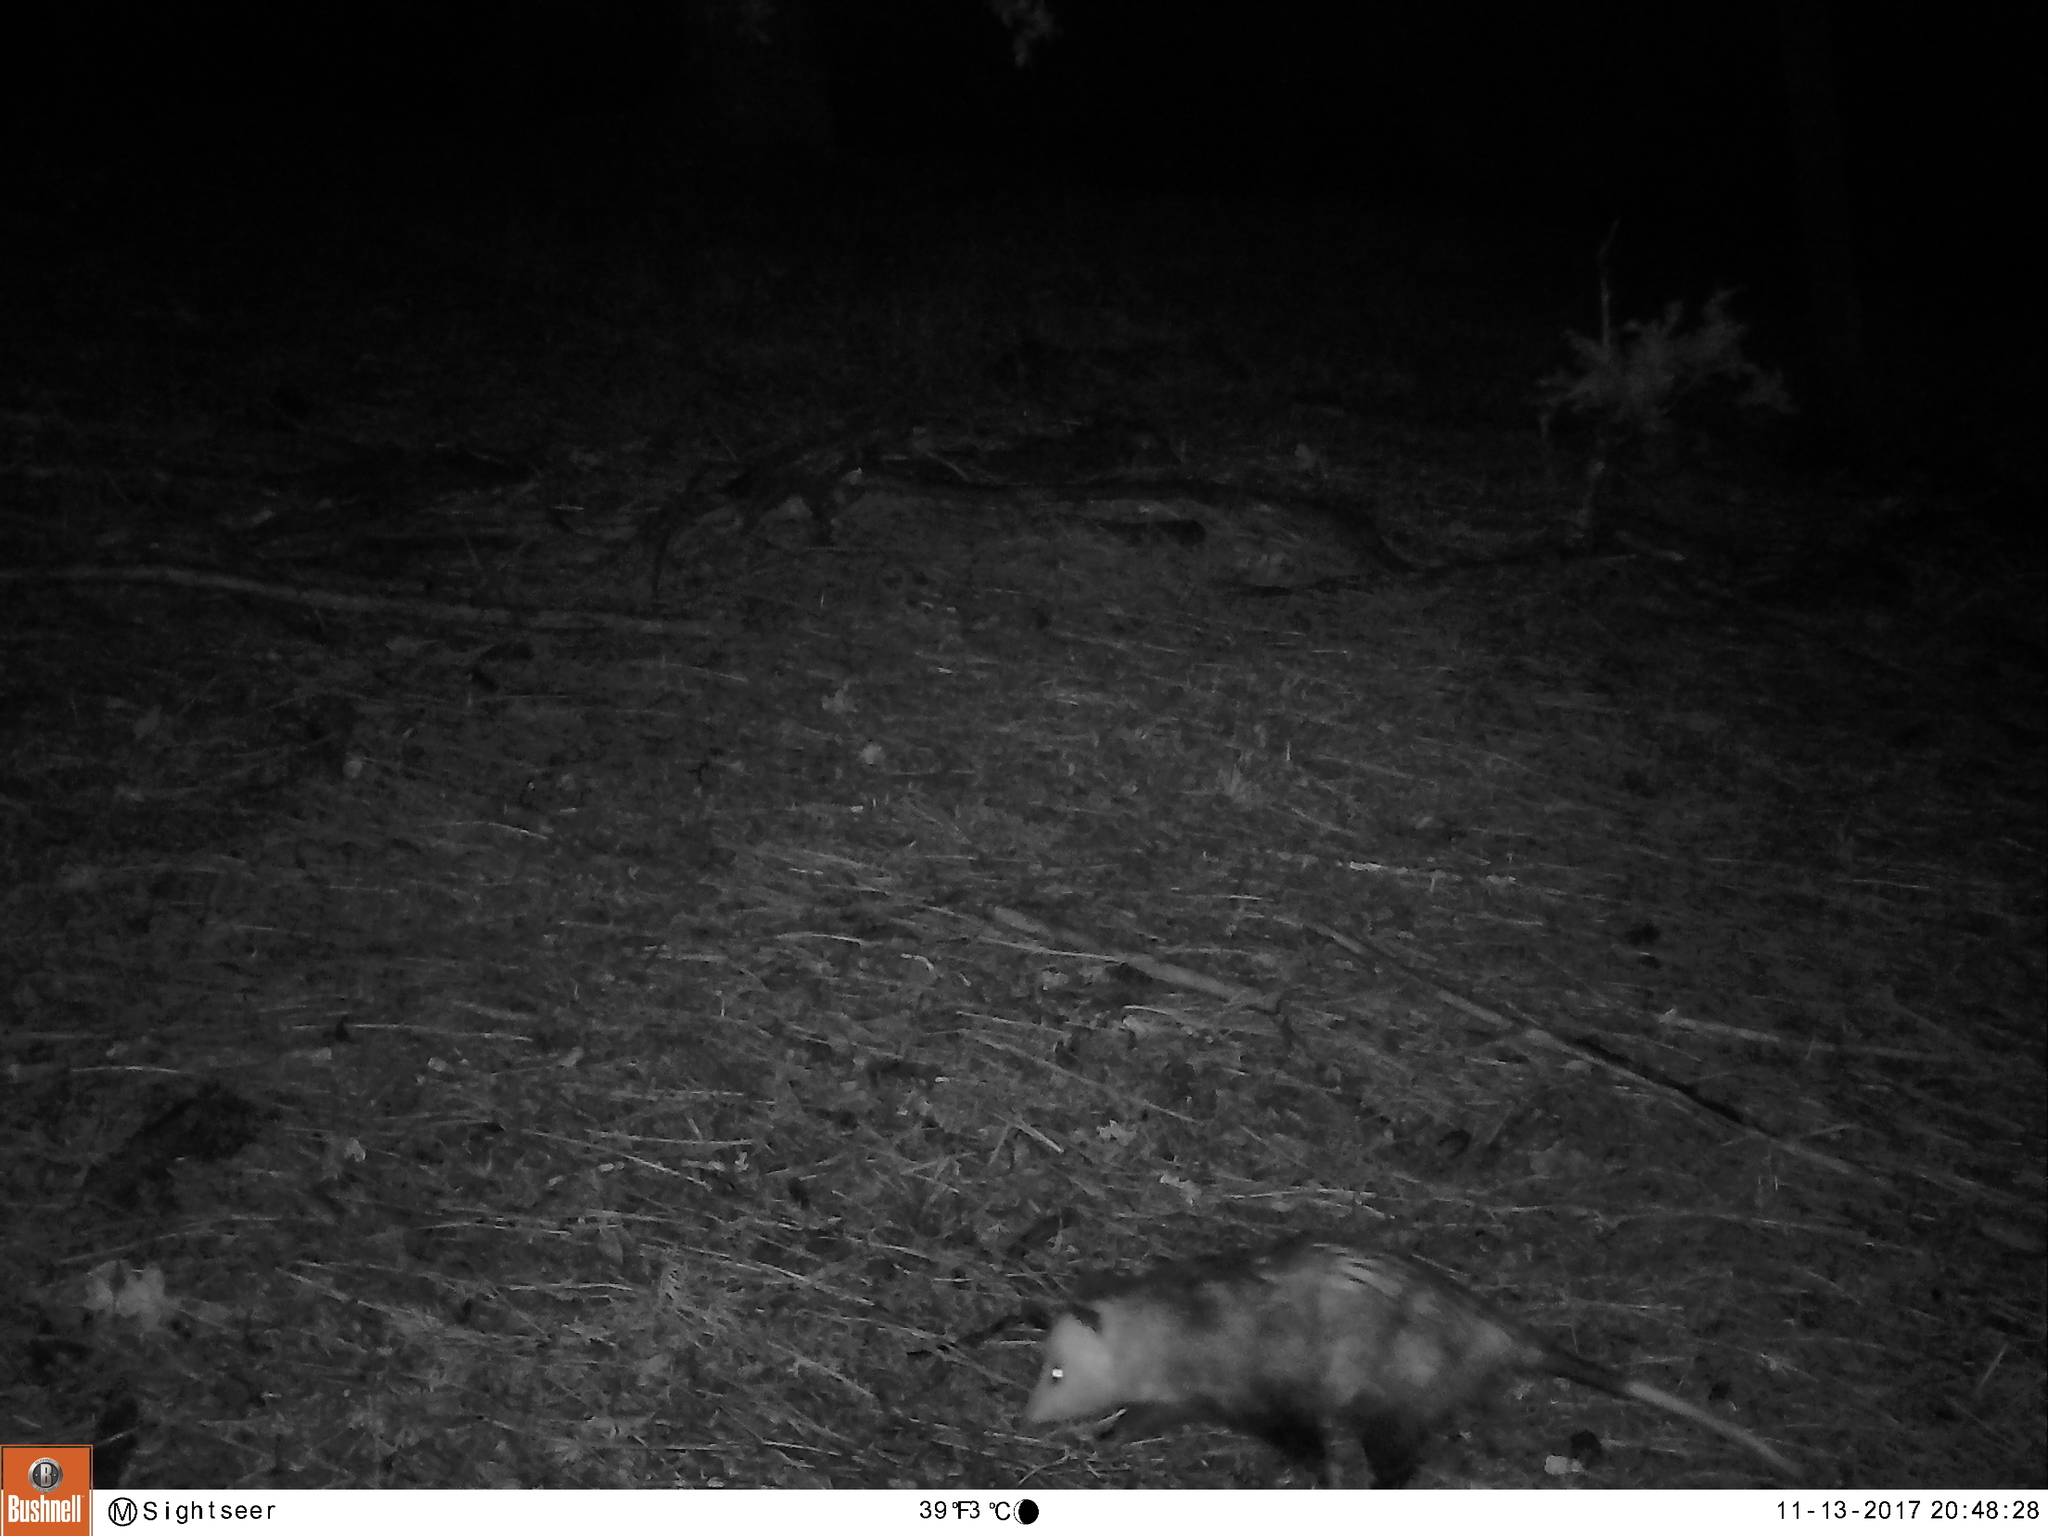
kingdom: Animalia
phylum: Chordata
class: Mammalia
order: Didelphimorphia
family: Didelphidae
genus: Didelphis
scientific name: Didelphis virginiana
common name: Virginia opossum
